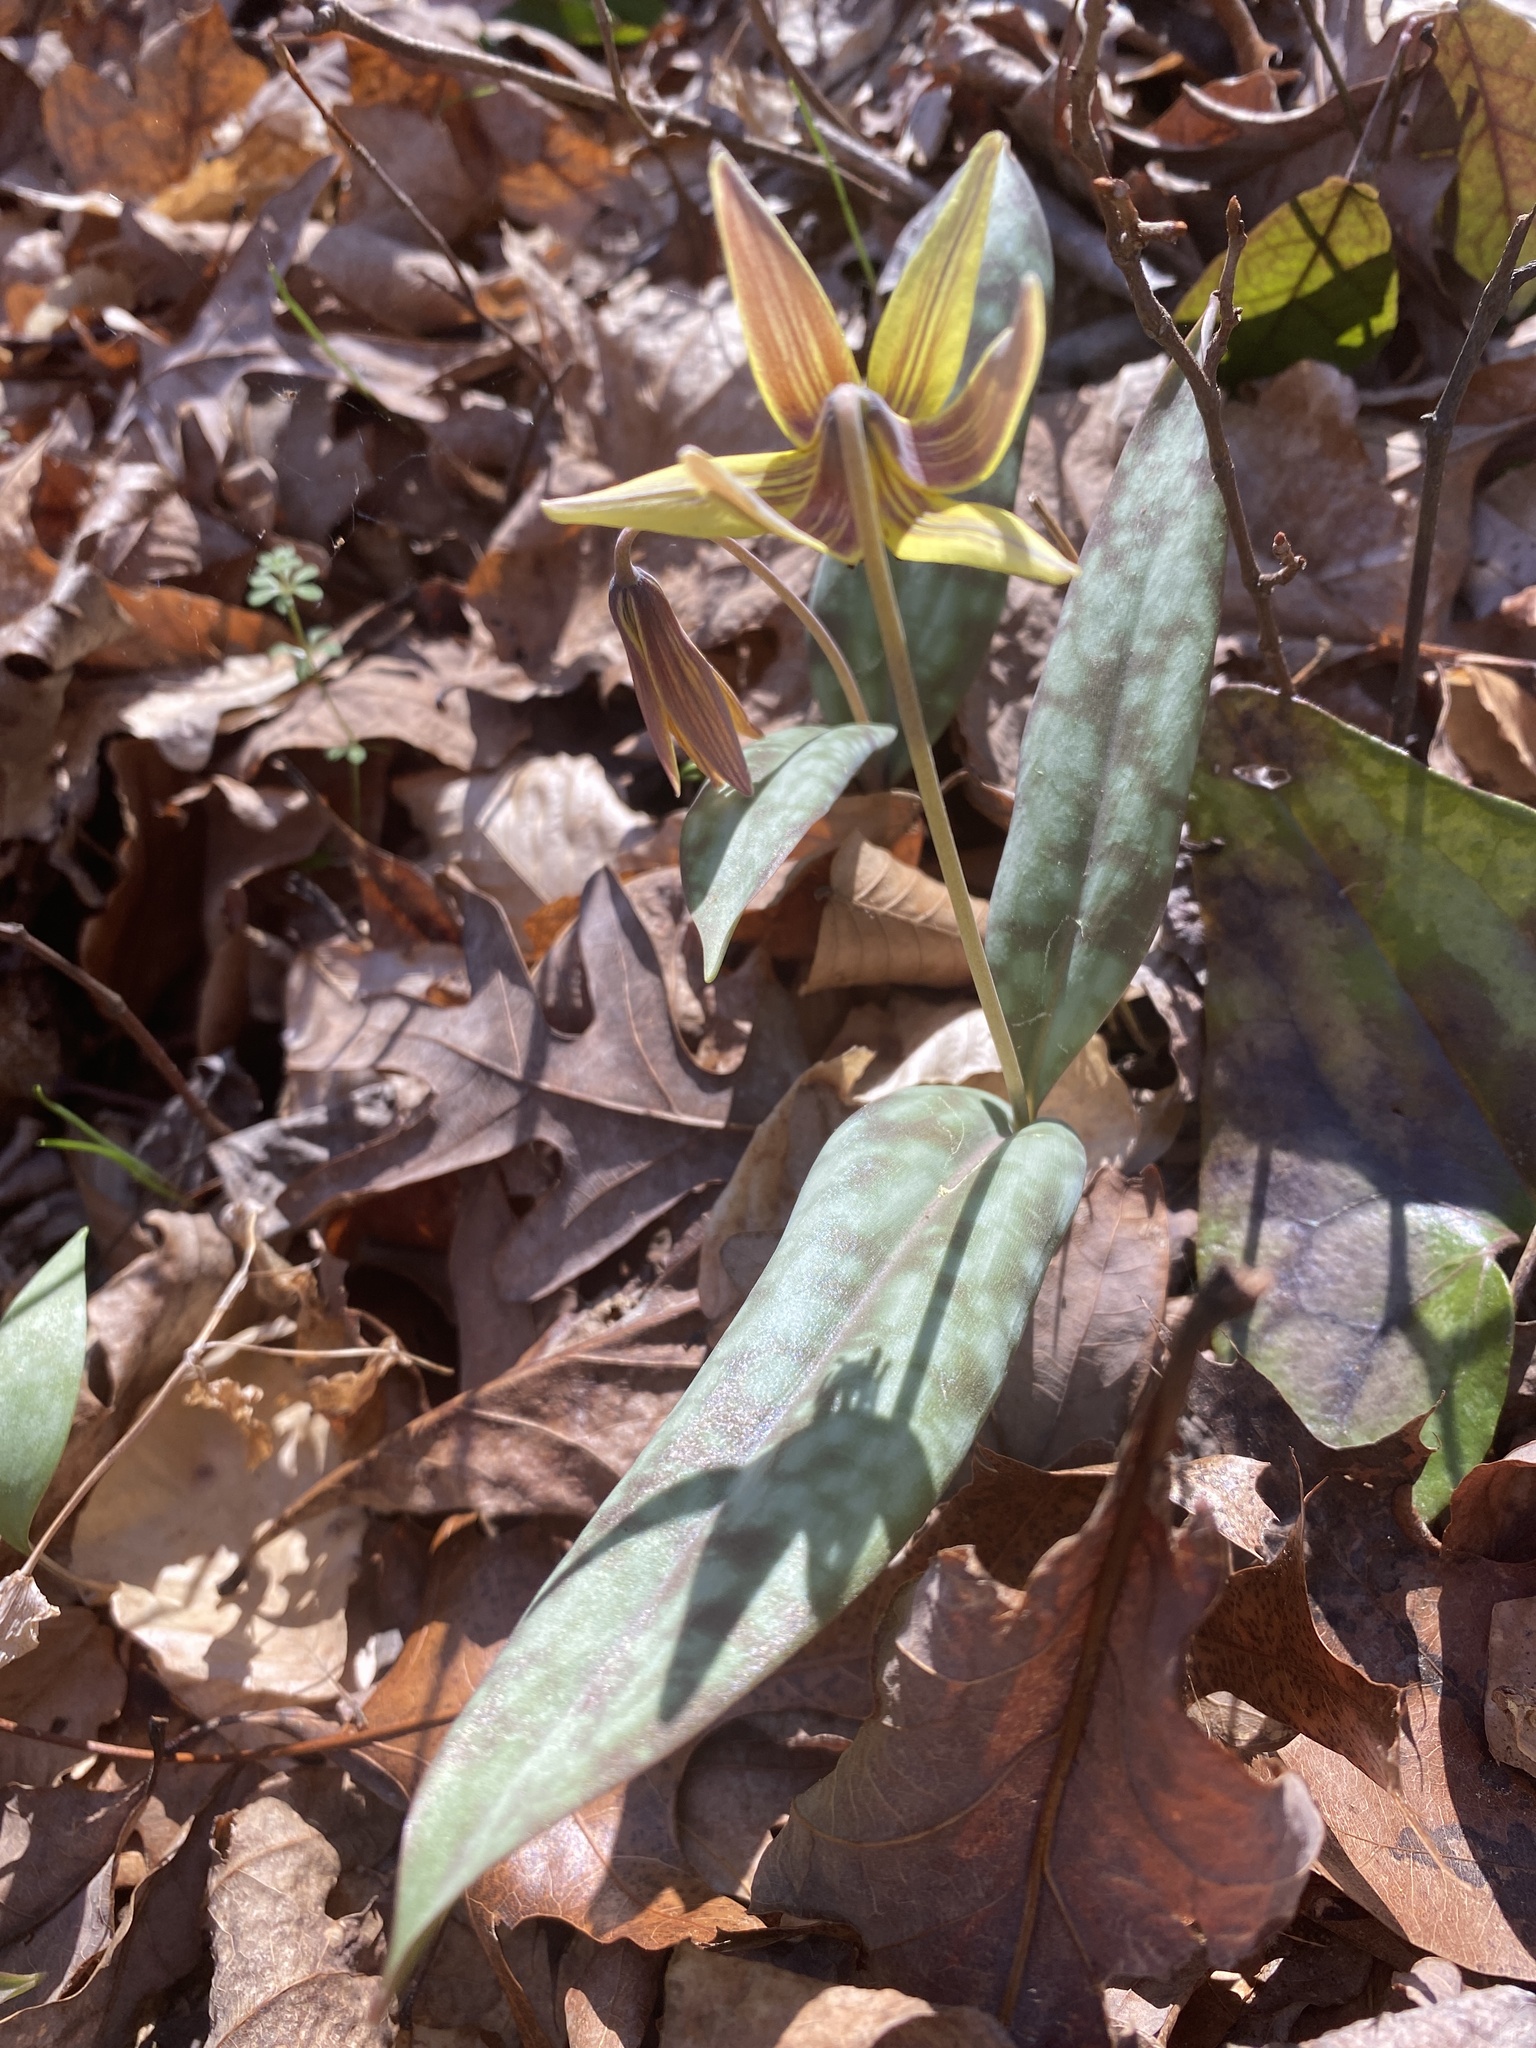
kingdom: Plantae
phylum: Tracheophyta
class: Liliopsida
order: Liliales
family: Liliaceae
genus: Erythronium
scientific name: Erythronium umbilicatum
